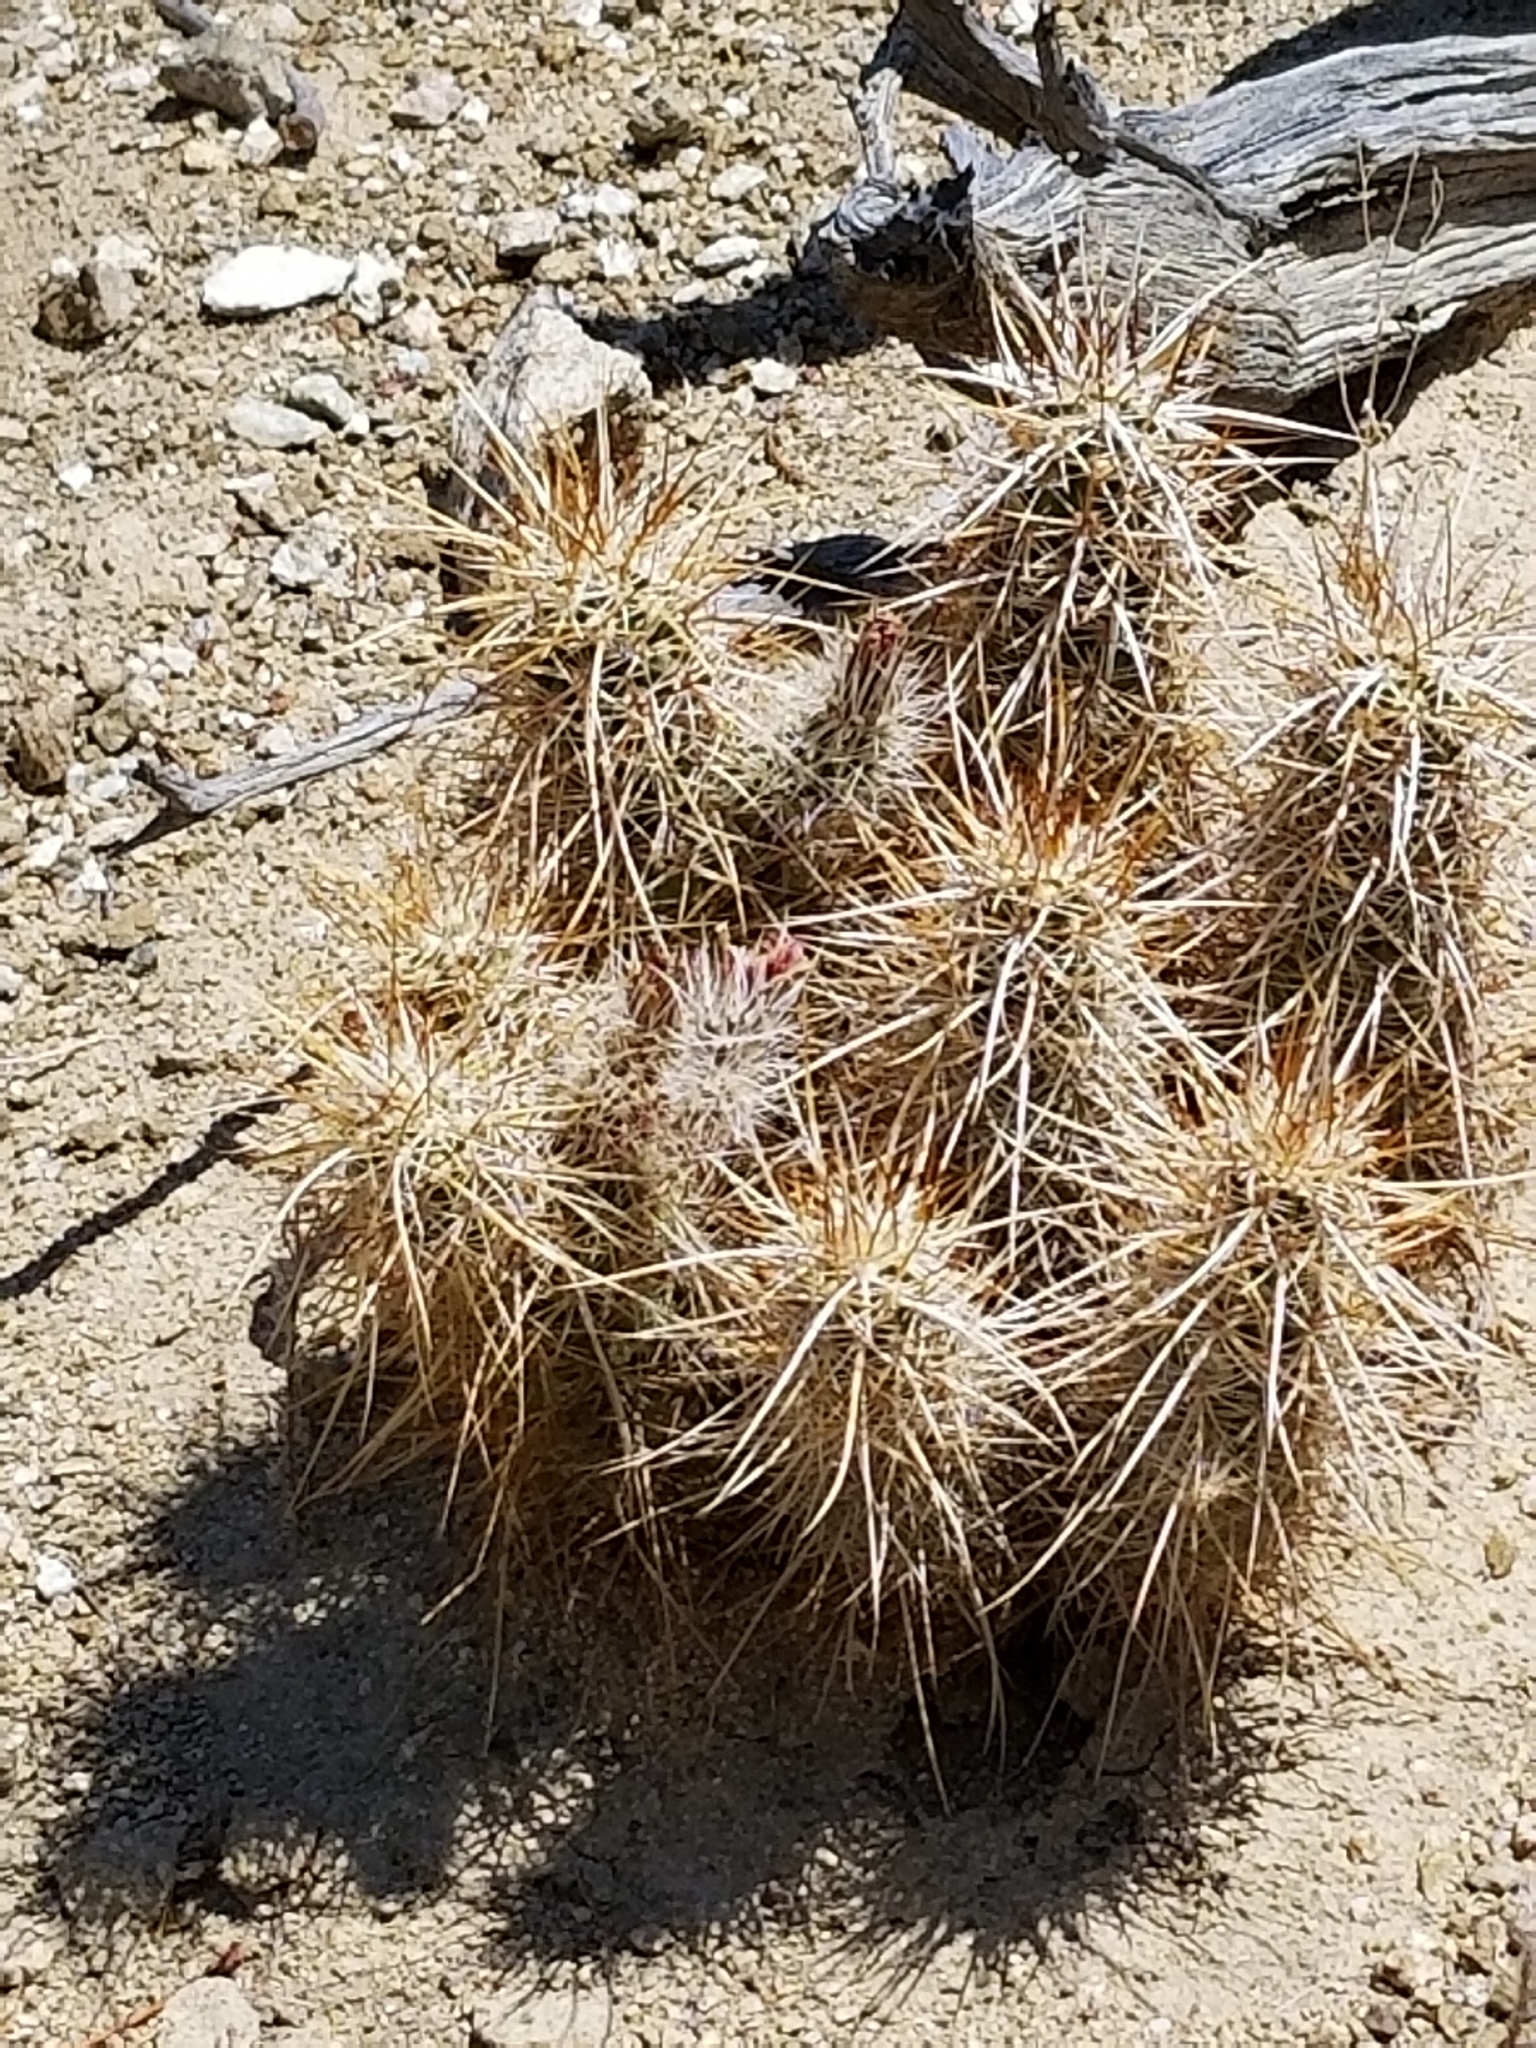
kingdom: Plantae
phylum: Tracheophyta
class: Magnoliopsida
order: Caryophyllales
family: Cactaceae
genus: Echinocereus
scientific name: Echinocereus engelmannii
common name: Engelmann's hedgehog cactus
